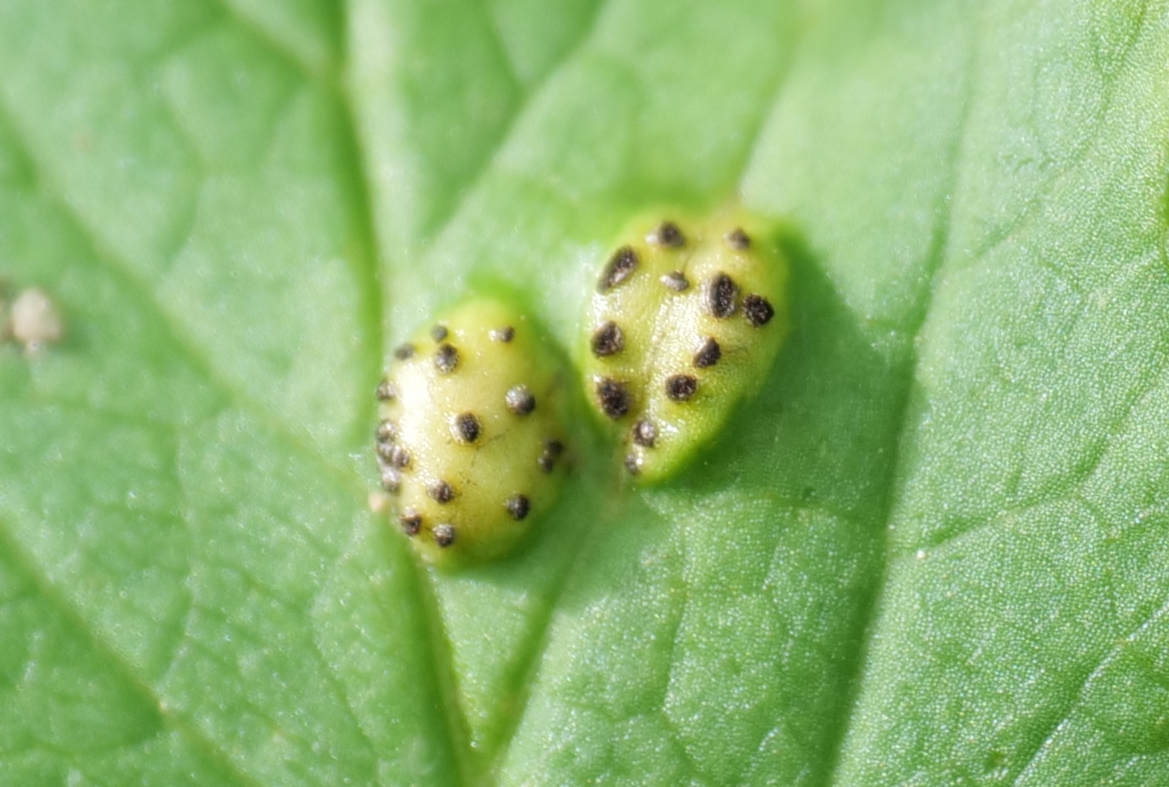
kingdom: Fungi
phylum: Basidiomycota
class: Pucciniomycetes
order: Pucciniales
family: Pucciniaceae
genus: Puccinia
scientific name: Puccinia aegopodii
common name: Ground elder rust
